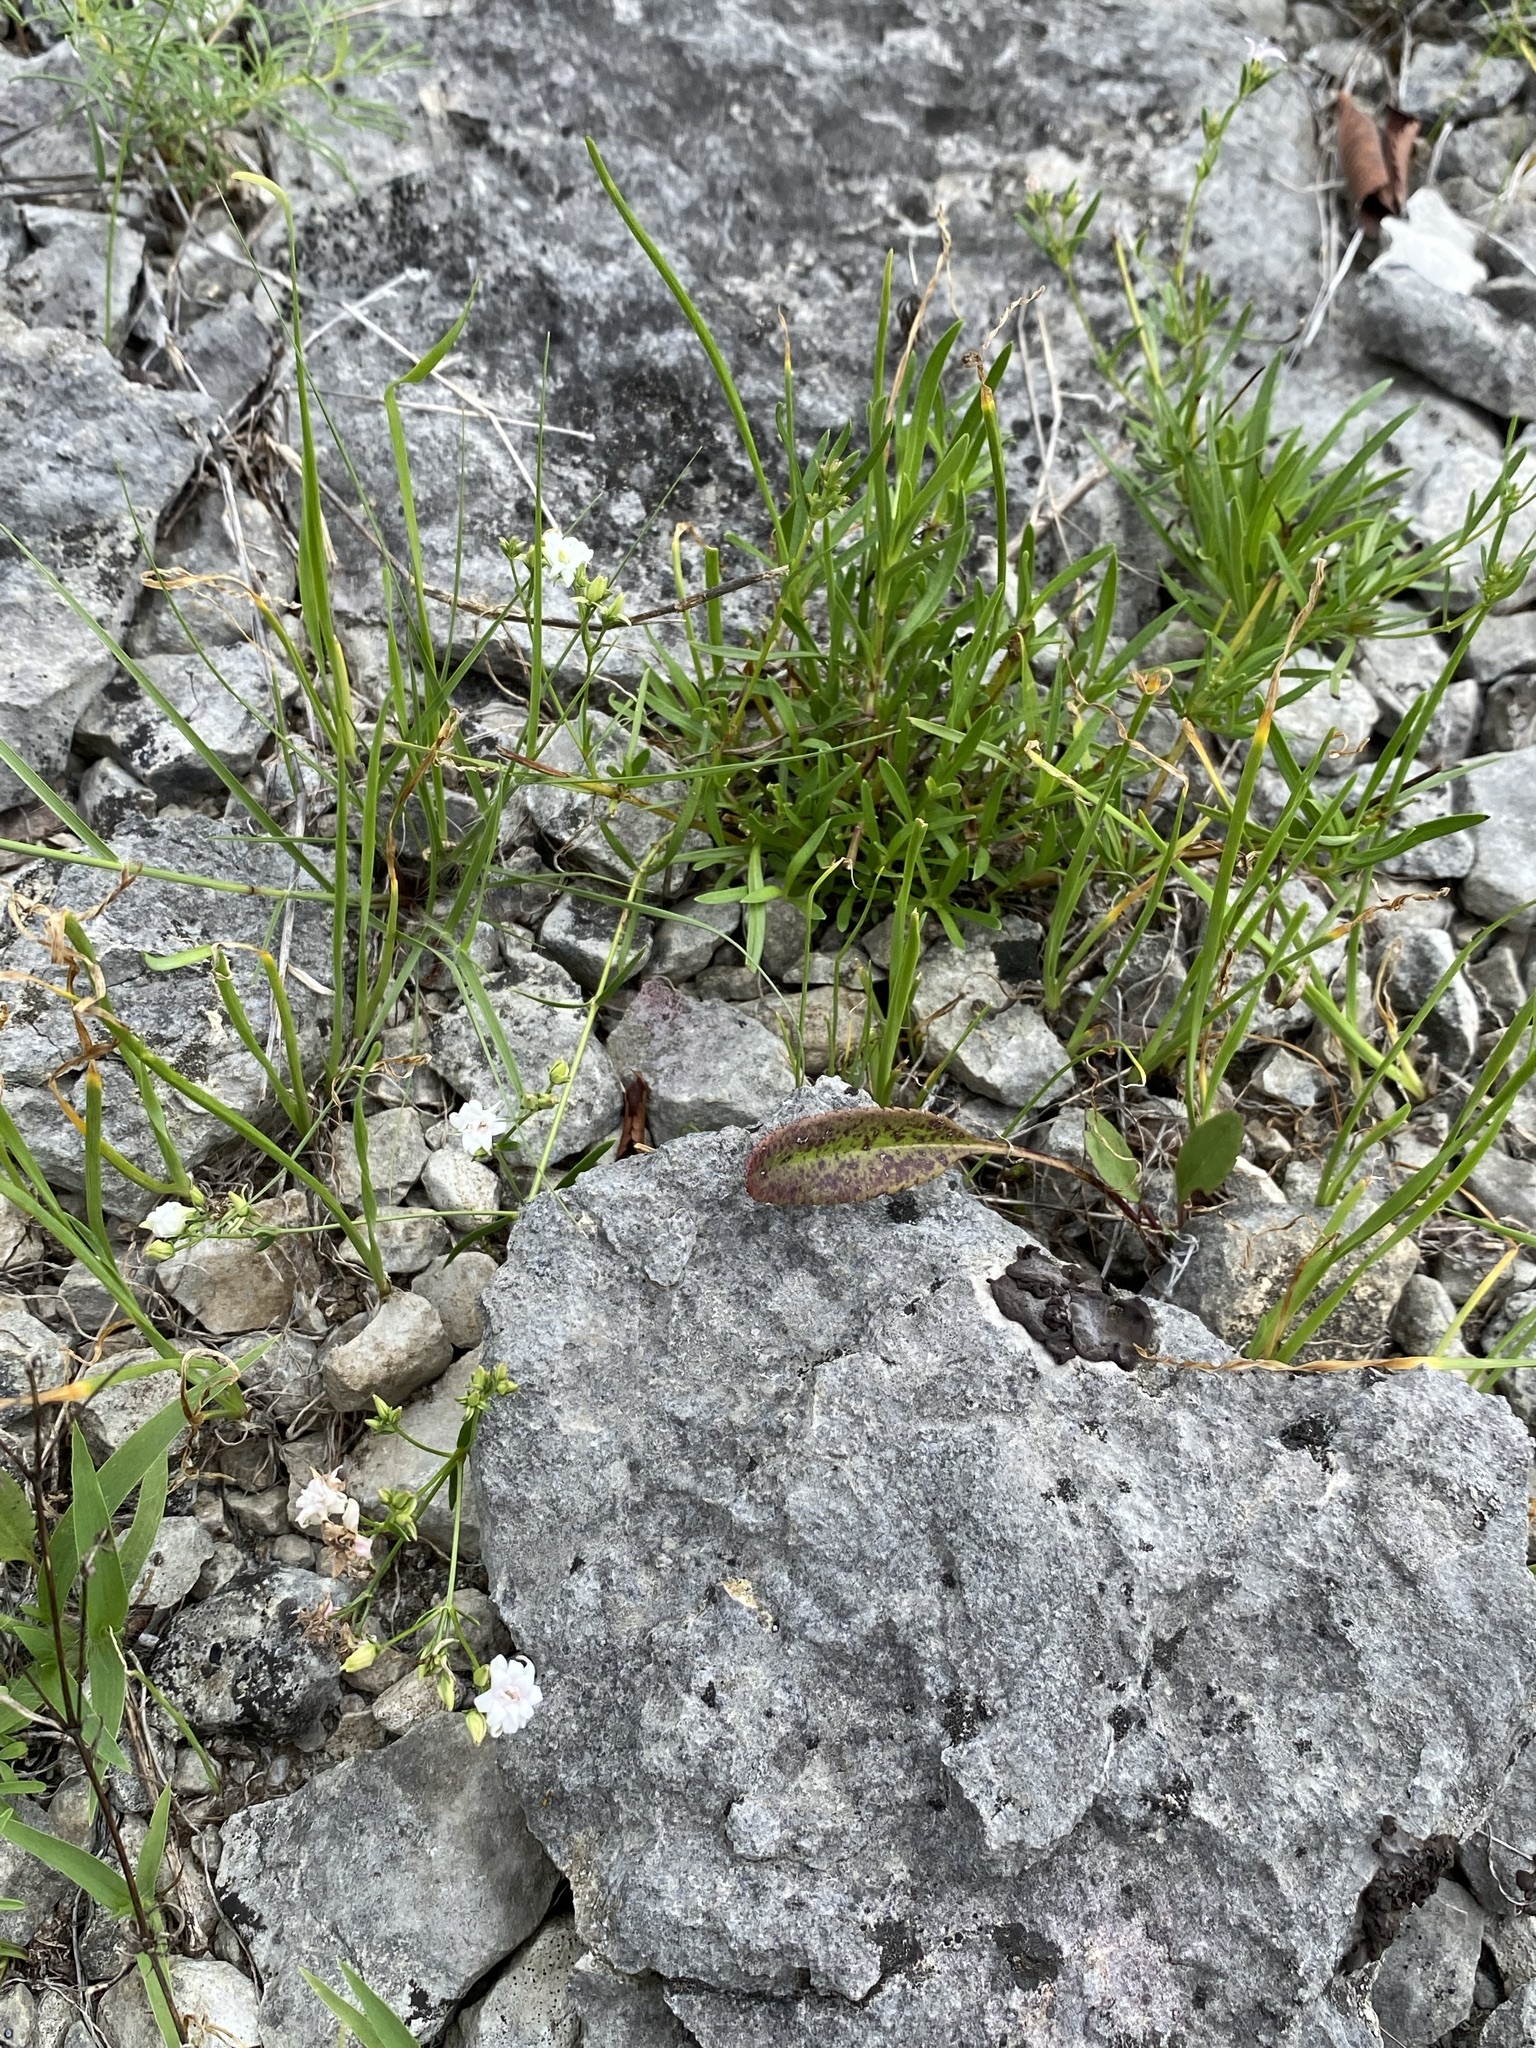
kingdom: Plantae
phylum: Tracheophyta
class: Magnoliopsida
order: Gentianales
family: Rubiaceae
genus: Stenaria
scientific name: Stenaria nigricans
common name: Diamondflowers
